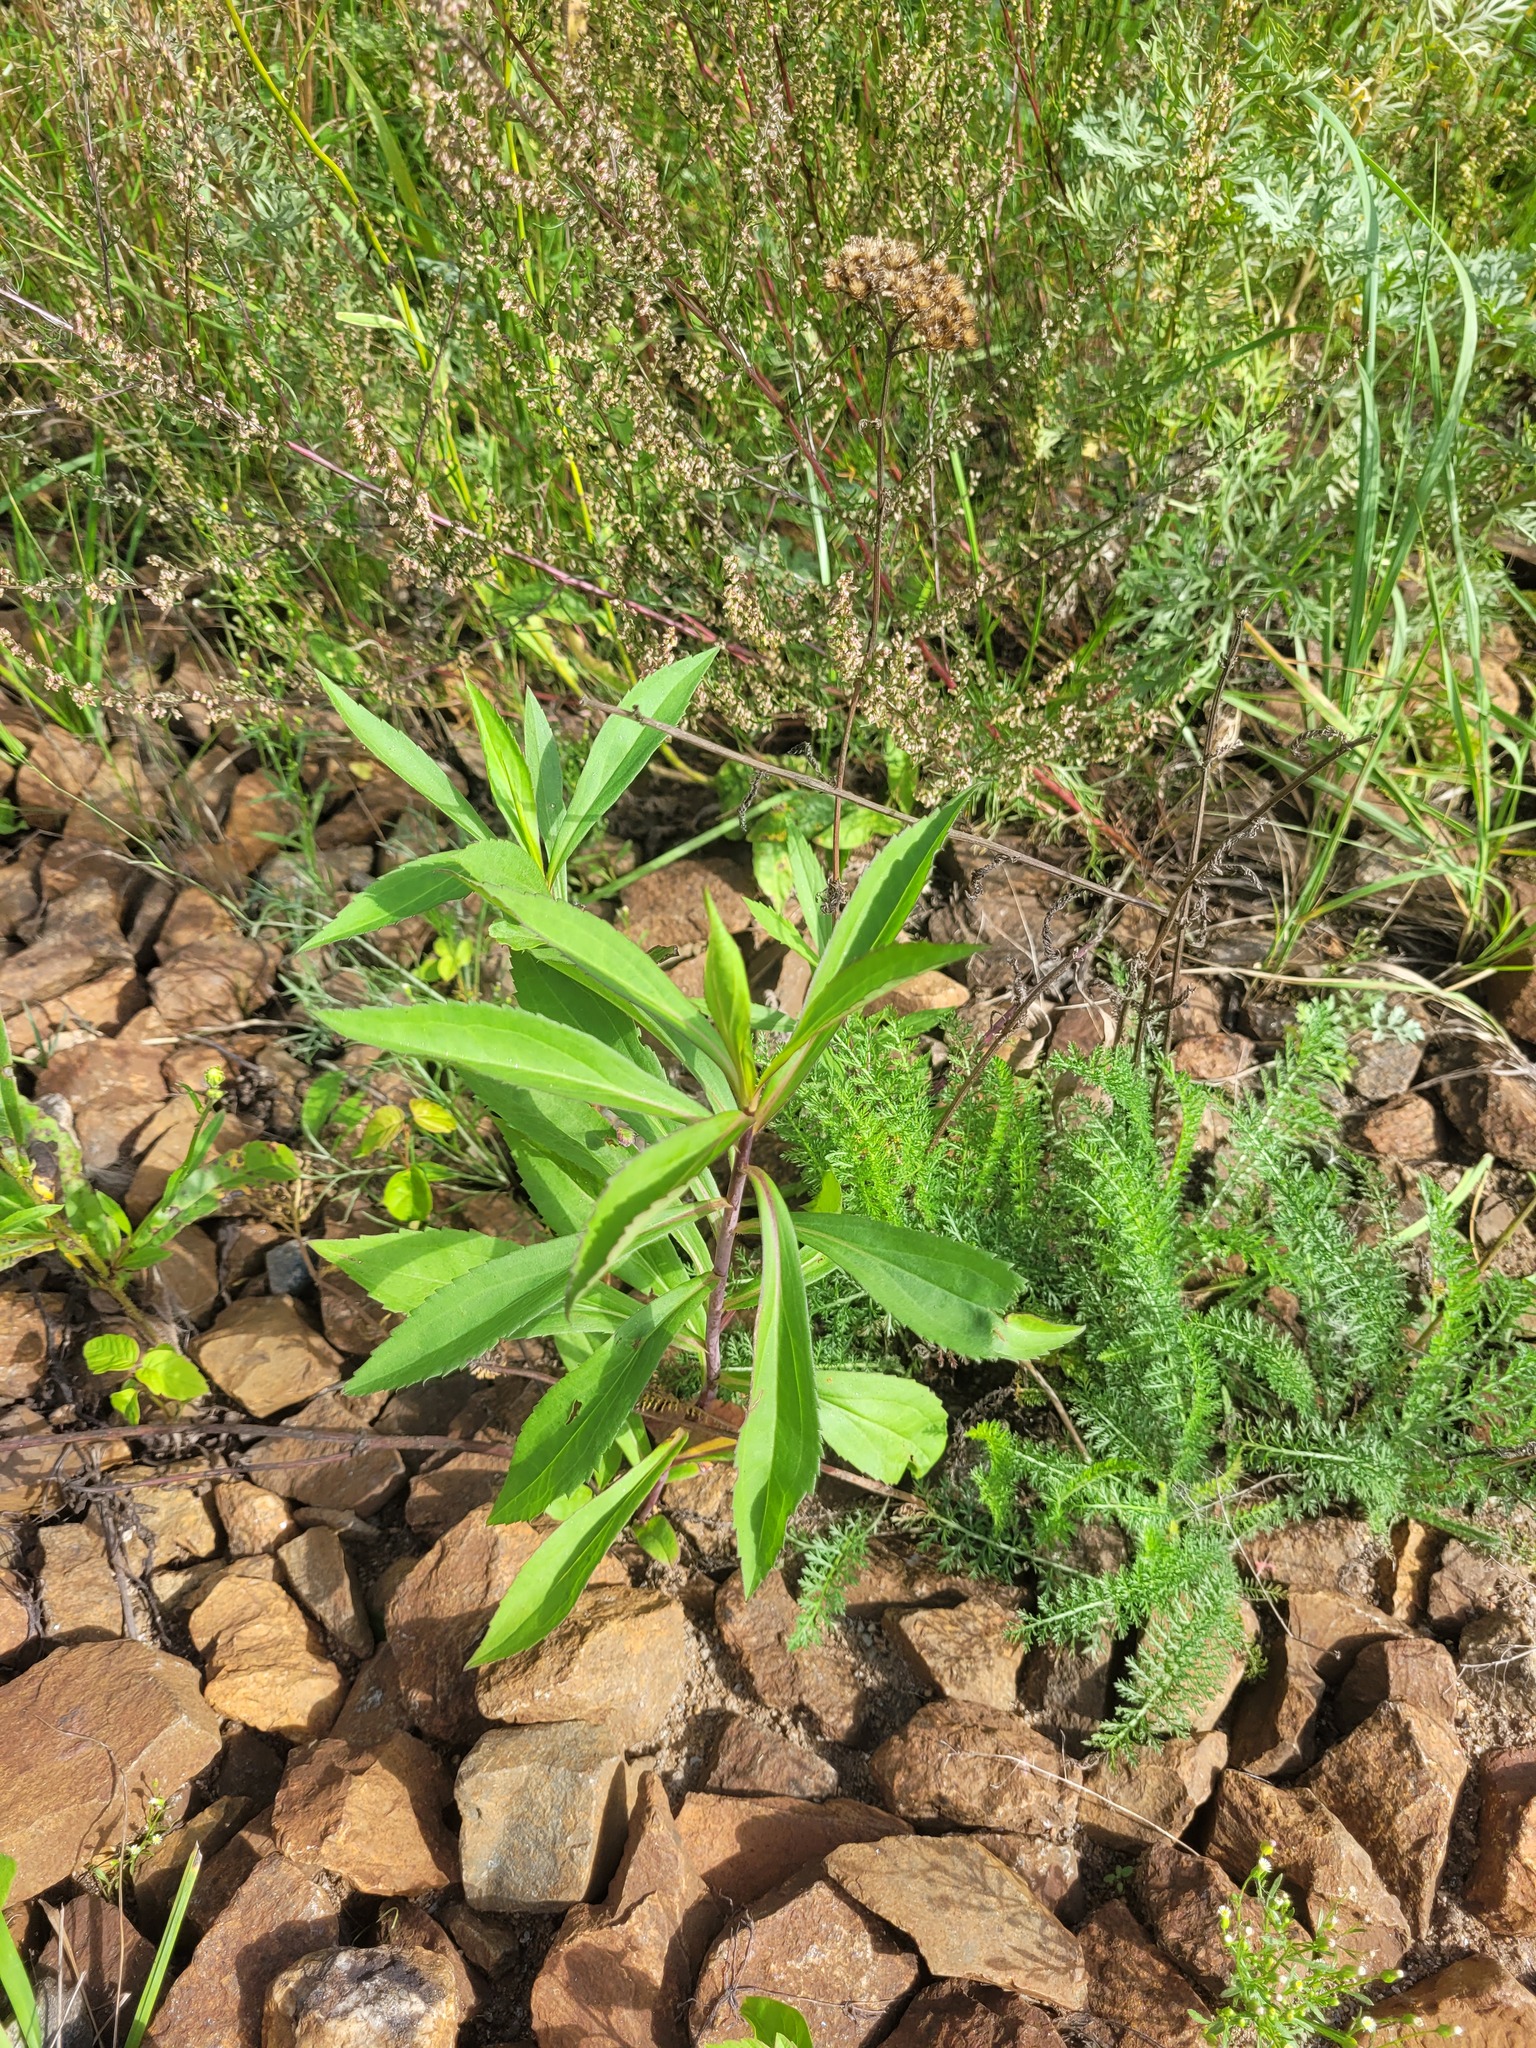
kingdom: Plantae
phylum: Tracheophyta
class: Magnoliopsida
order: Asterales
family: Asteraceae
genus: Solidago
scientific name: Solidago gigantea
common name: Giant goldenrod
